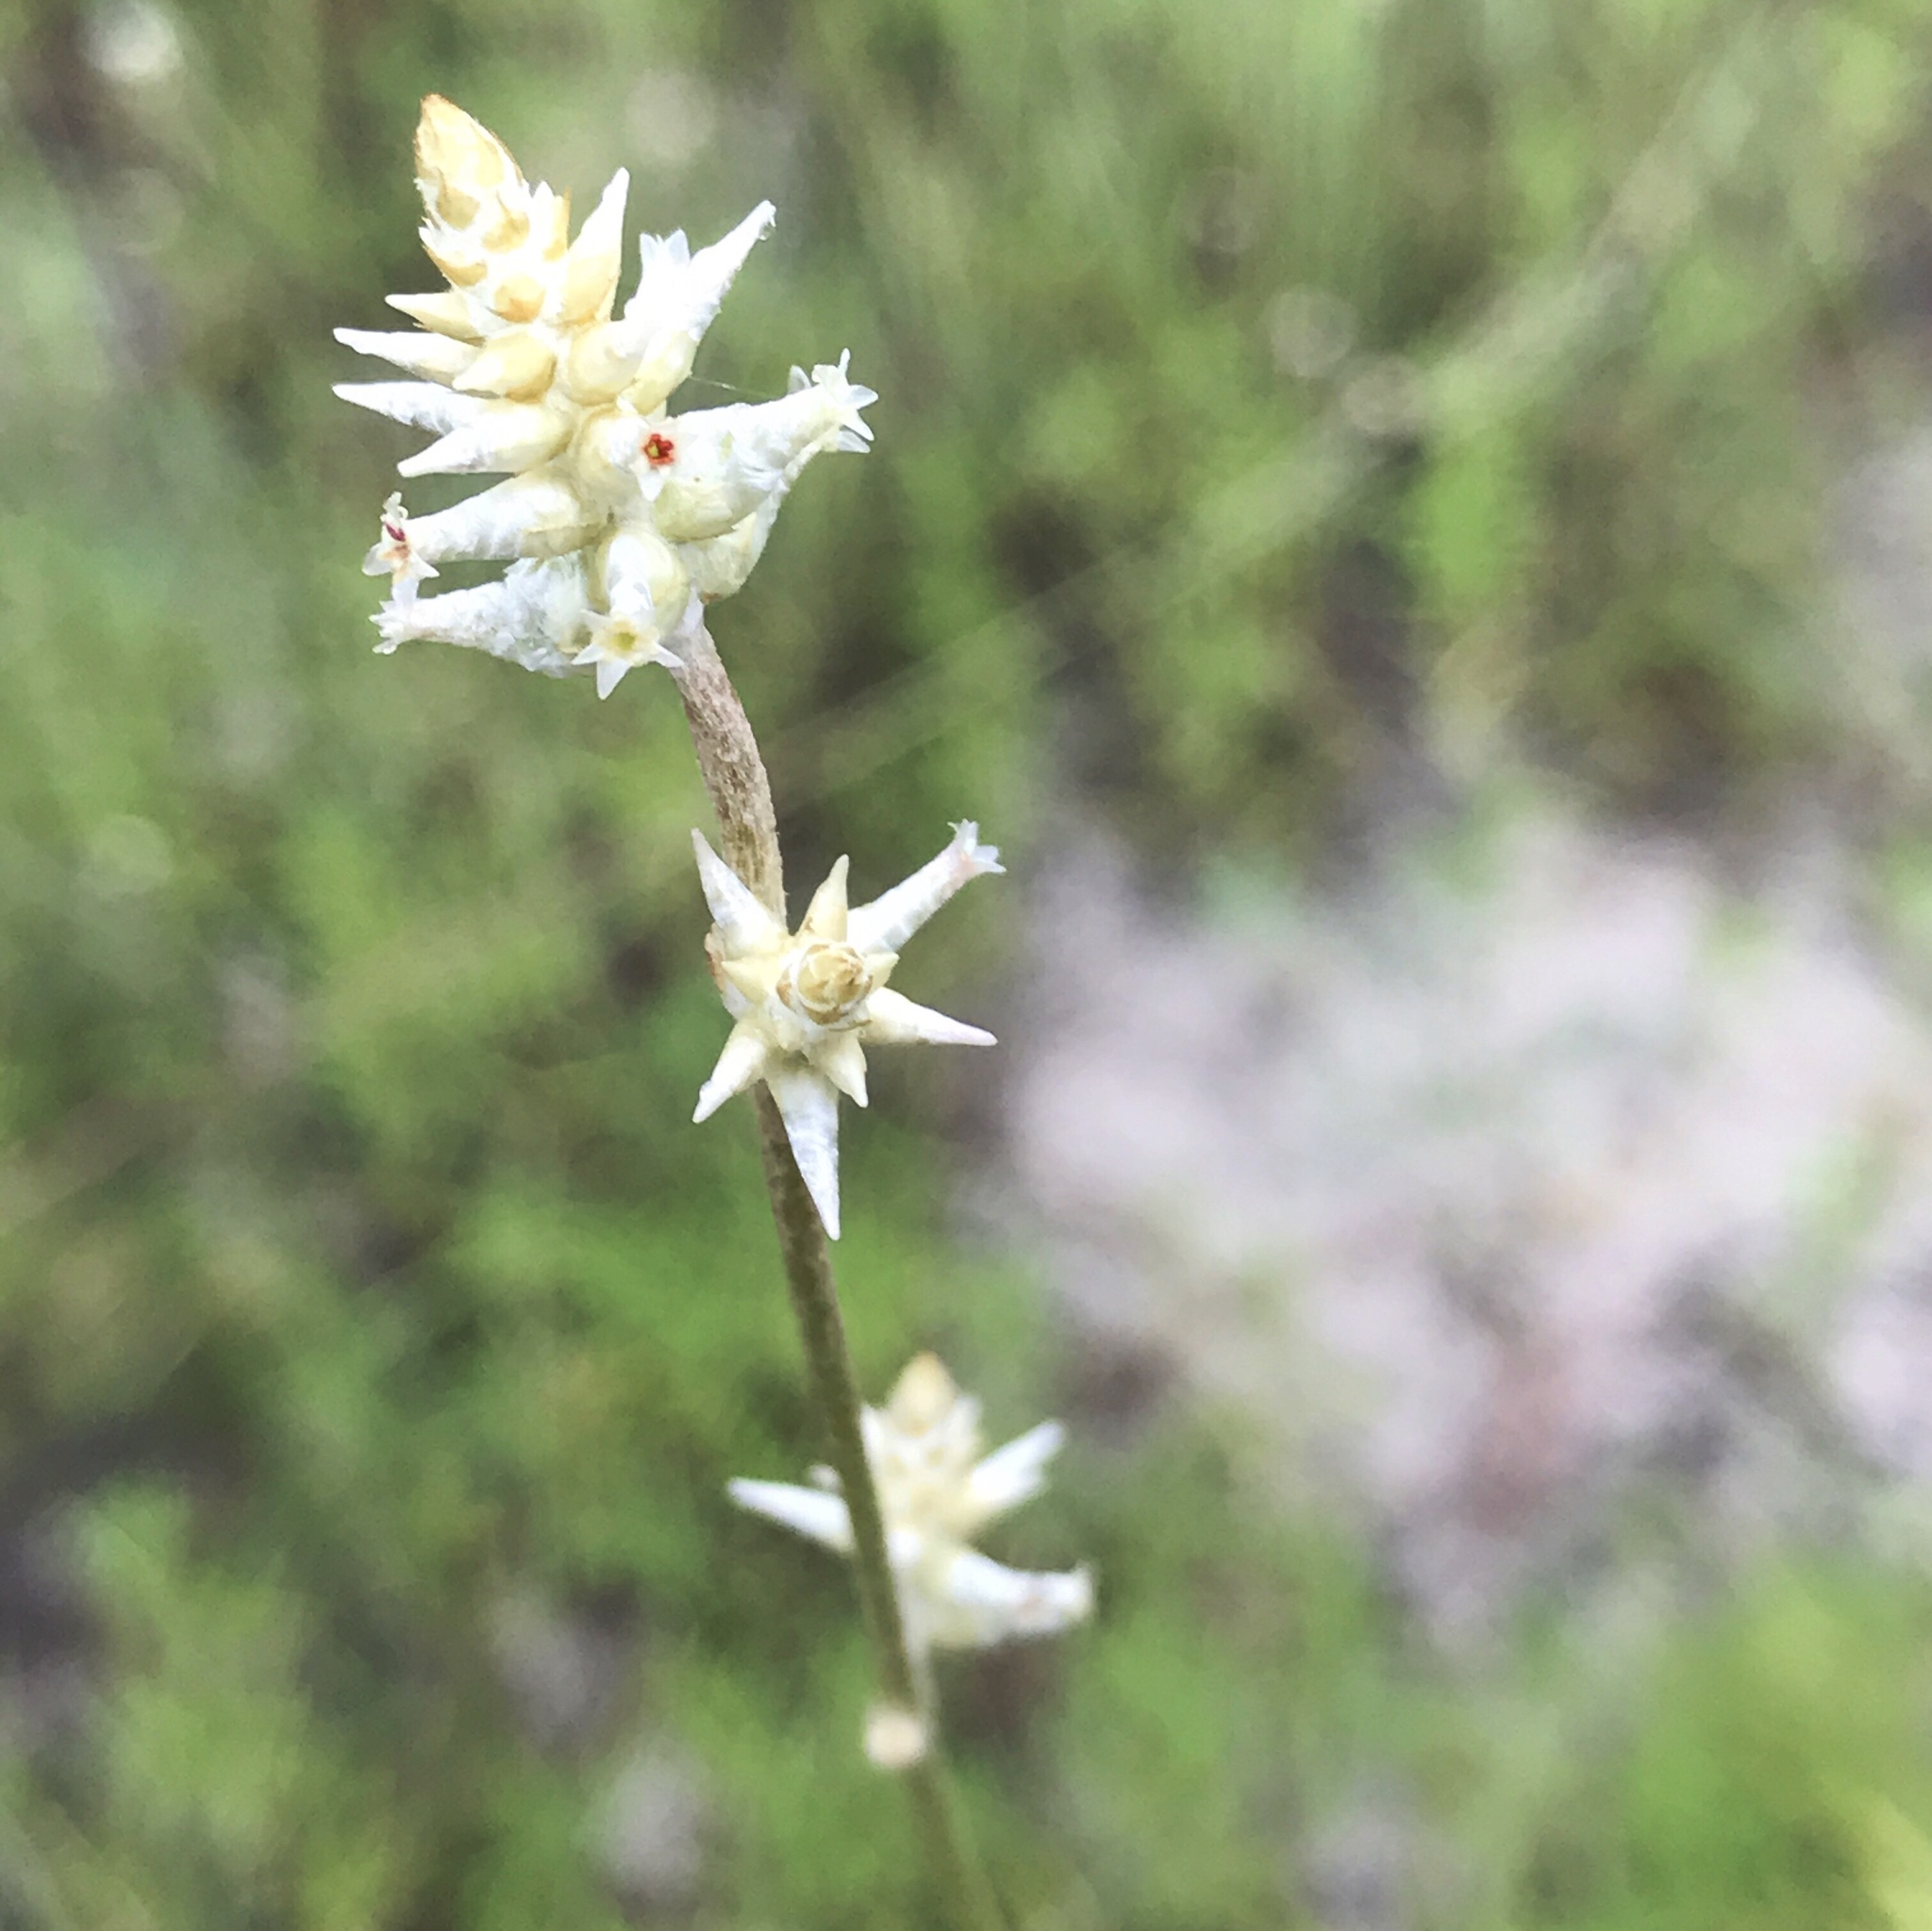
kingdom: Plantae
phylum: Tracheophyta
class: Magnoliopsida
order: Caryophyllales
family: Amaranthaceae
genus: Froelichia
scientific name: Froelichia floridana
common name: Florida snake-cotton
